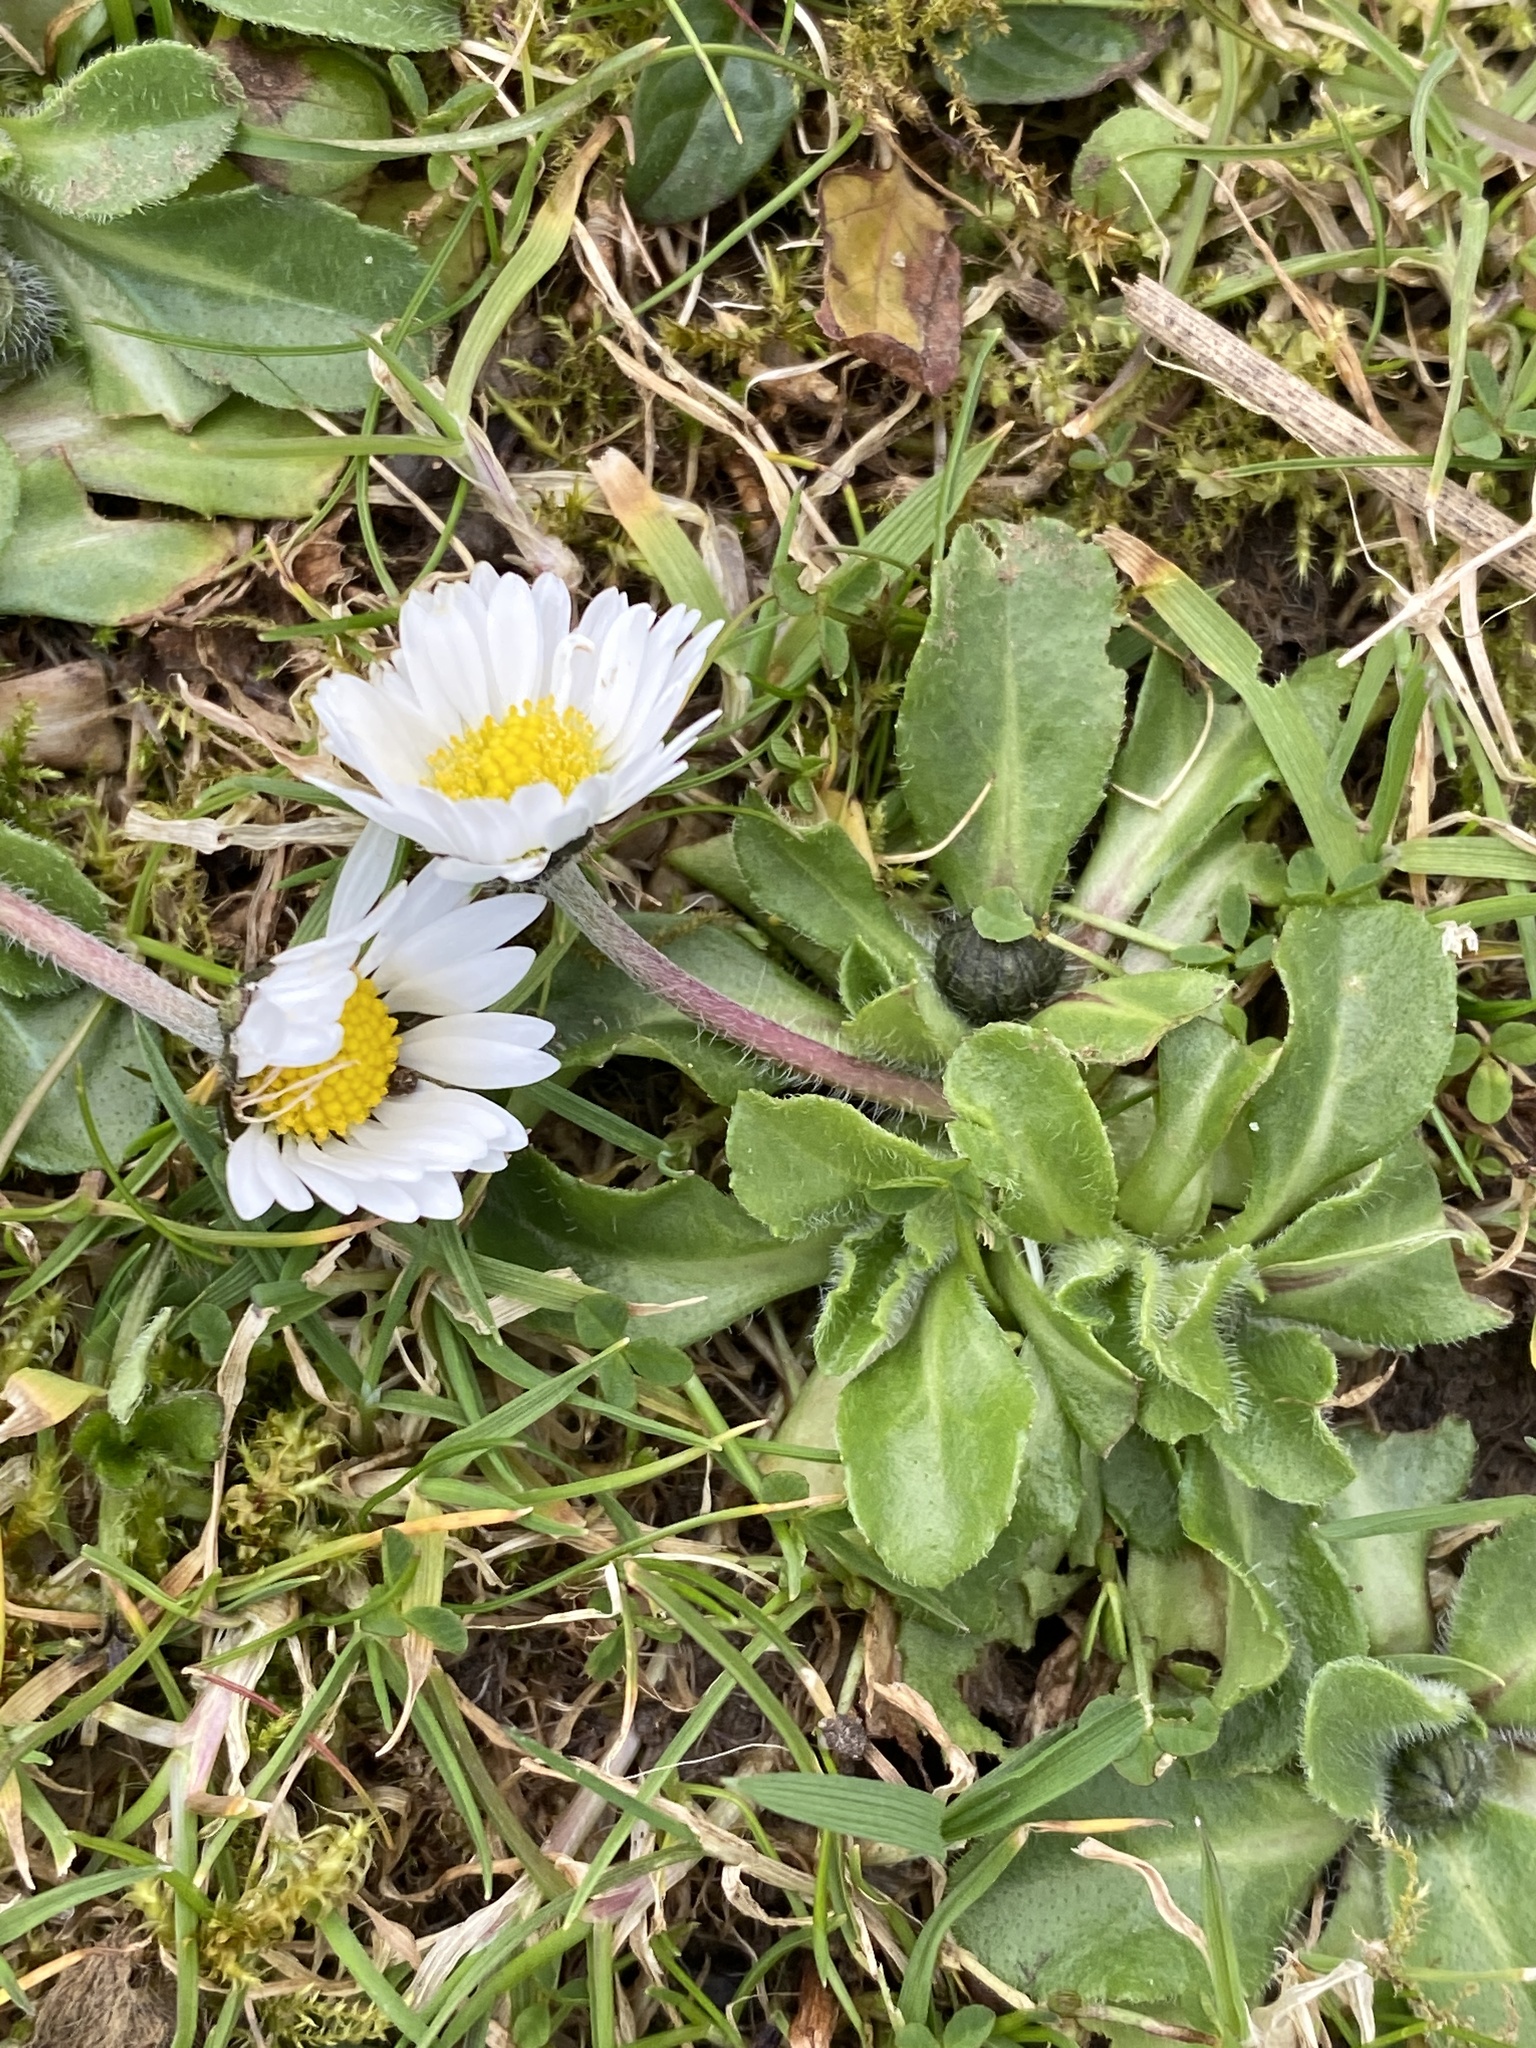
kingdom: Plantae
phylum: Tracheophyta
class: Magnoliopsida
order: Asterales
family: Asteraceae
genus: Bellis
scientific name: Bellis perennis
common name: Lawndaisy
